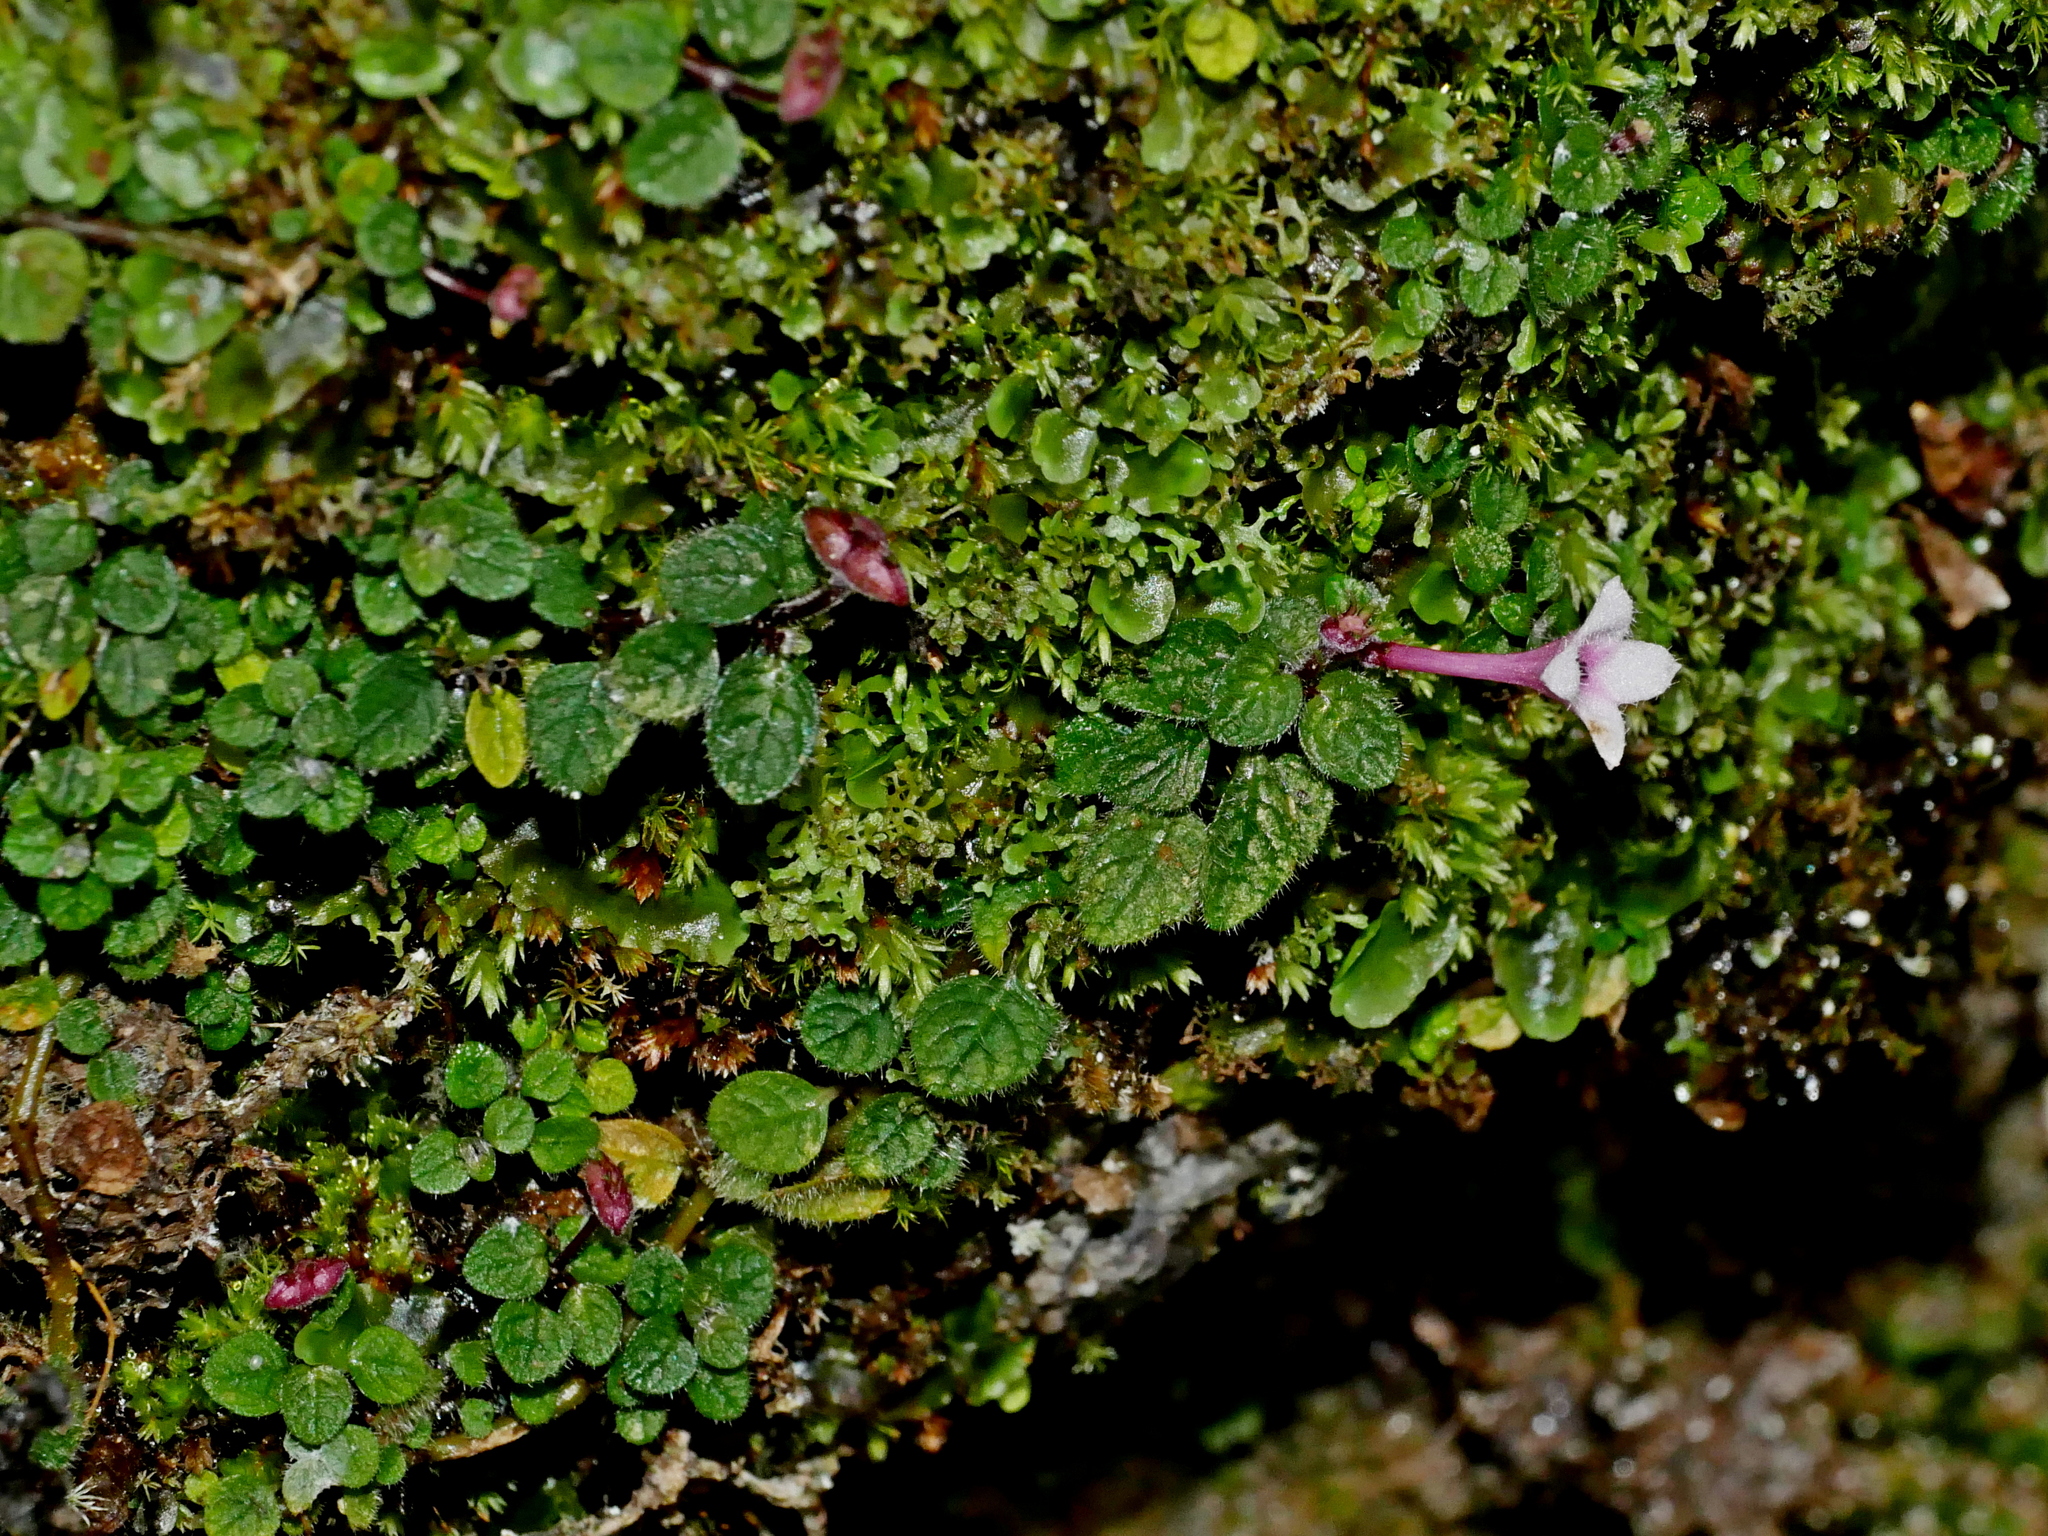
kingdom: Plantae
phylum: Tracheophyta
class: Magnoliopsida
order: Gentianales
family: Rubiaceae
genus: Ophiorrhiza
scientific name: Ophiorrhiza mitchelloides
